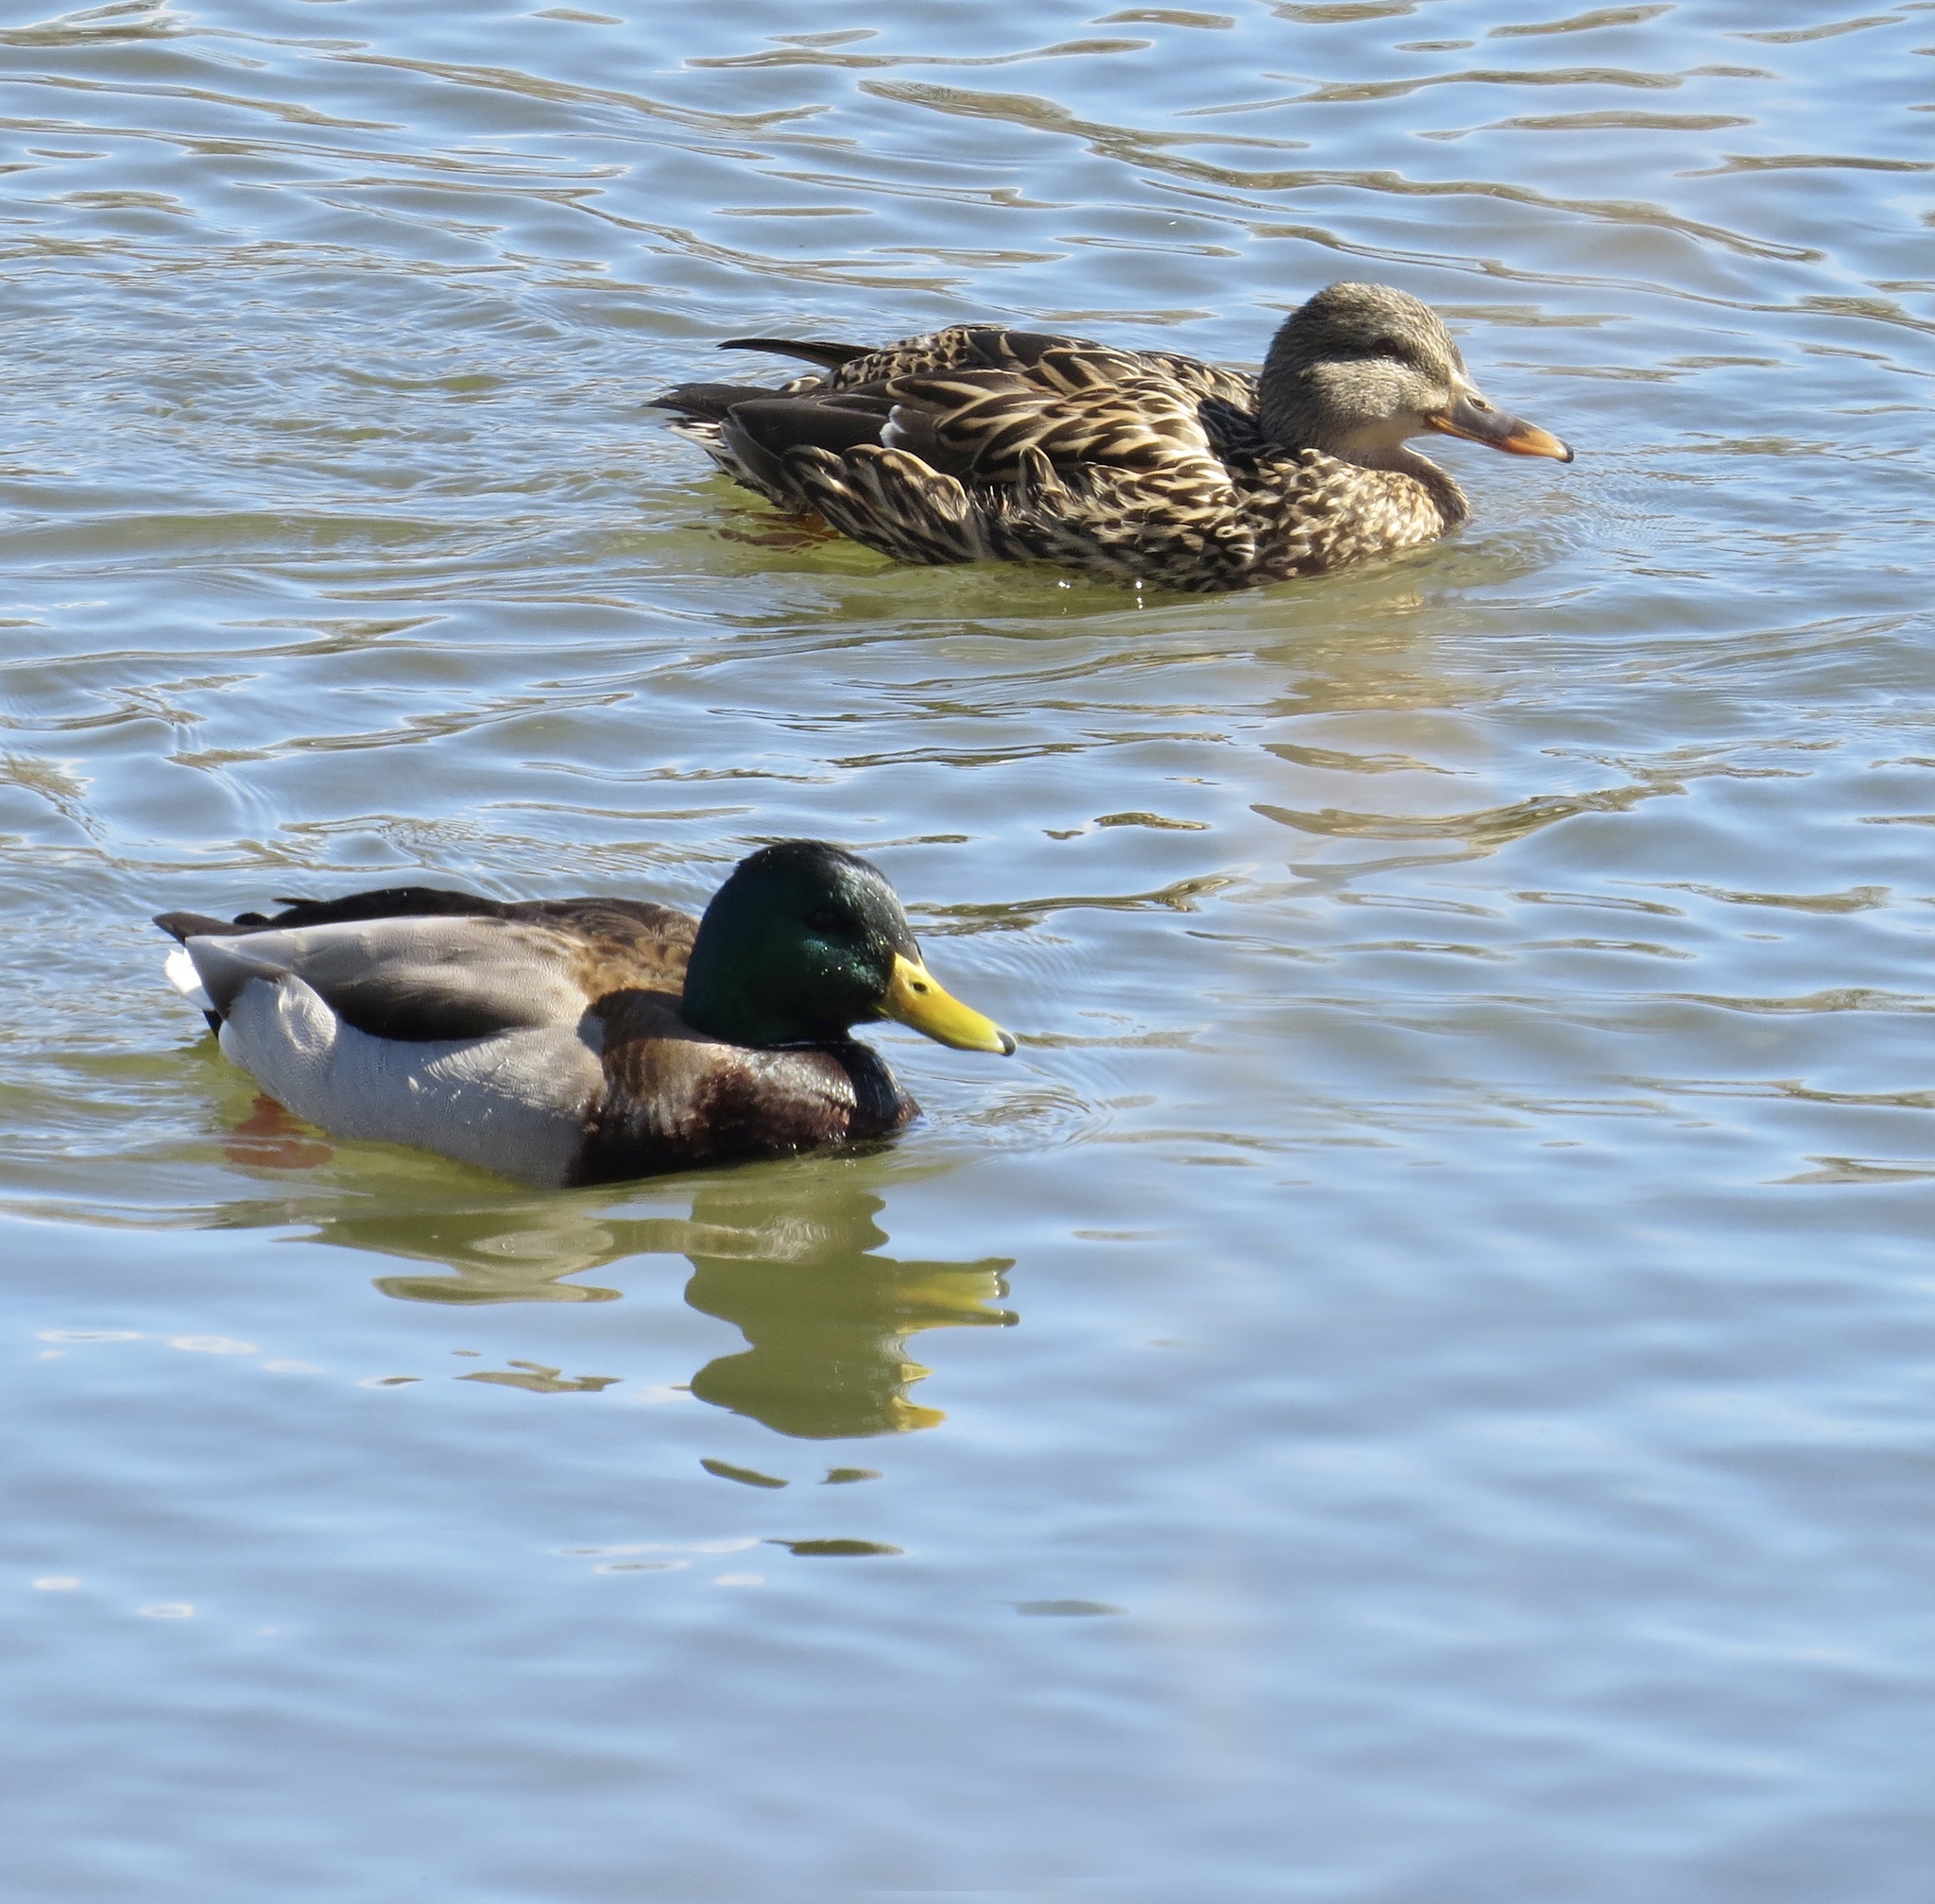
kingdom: Animalia
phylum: Chordata
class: Aves
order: Anseriformes
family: Anatidae
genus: Anas
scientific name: Anas platyrhynchos
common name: Mallard
